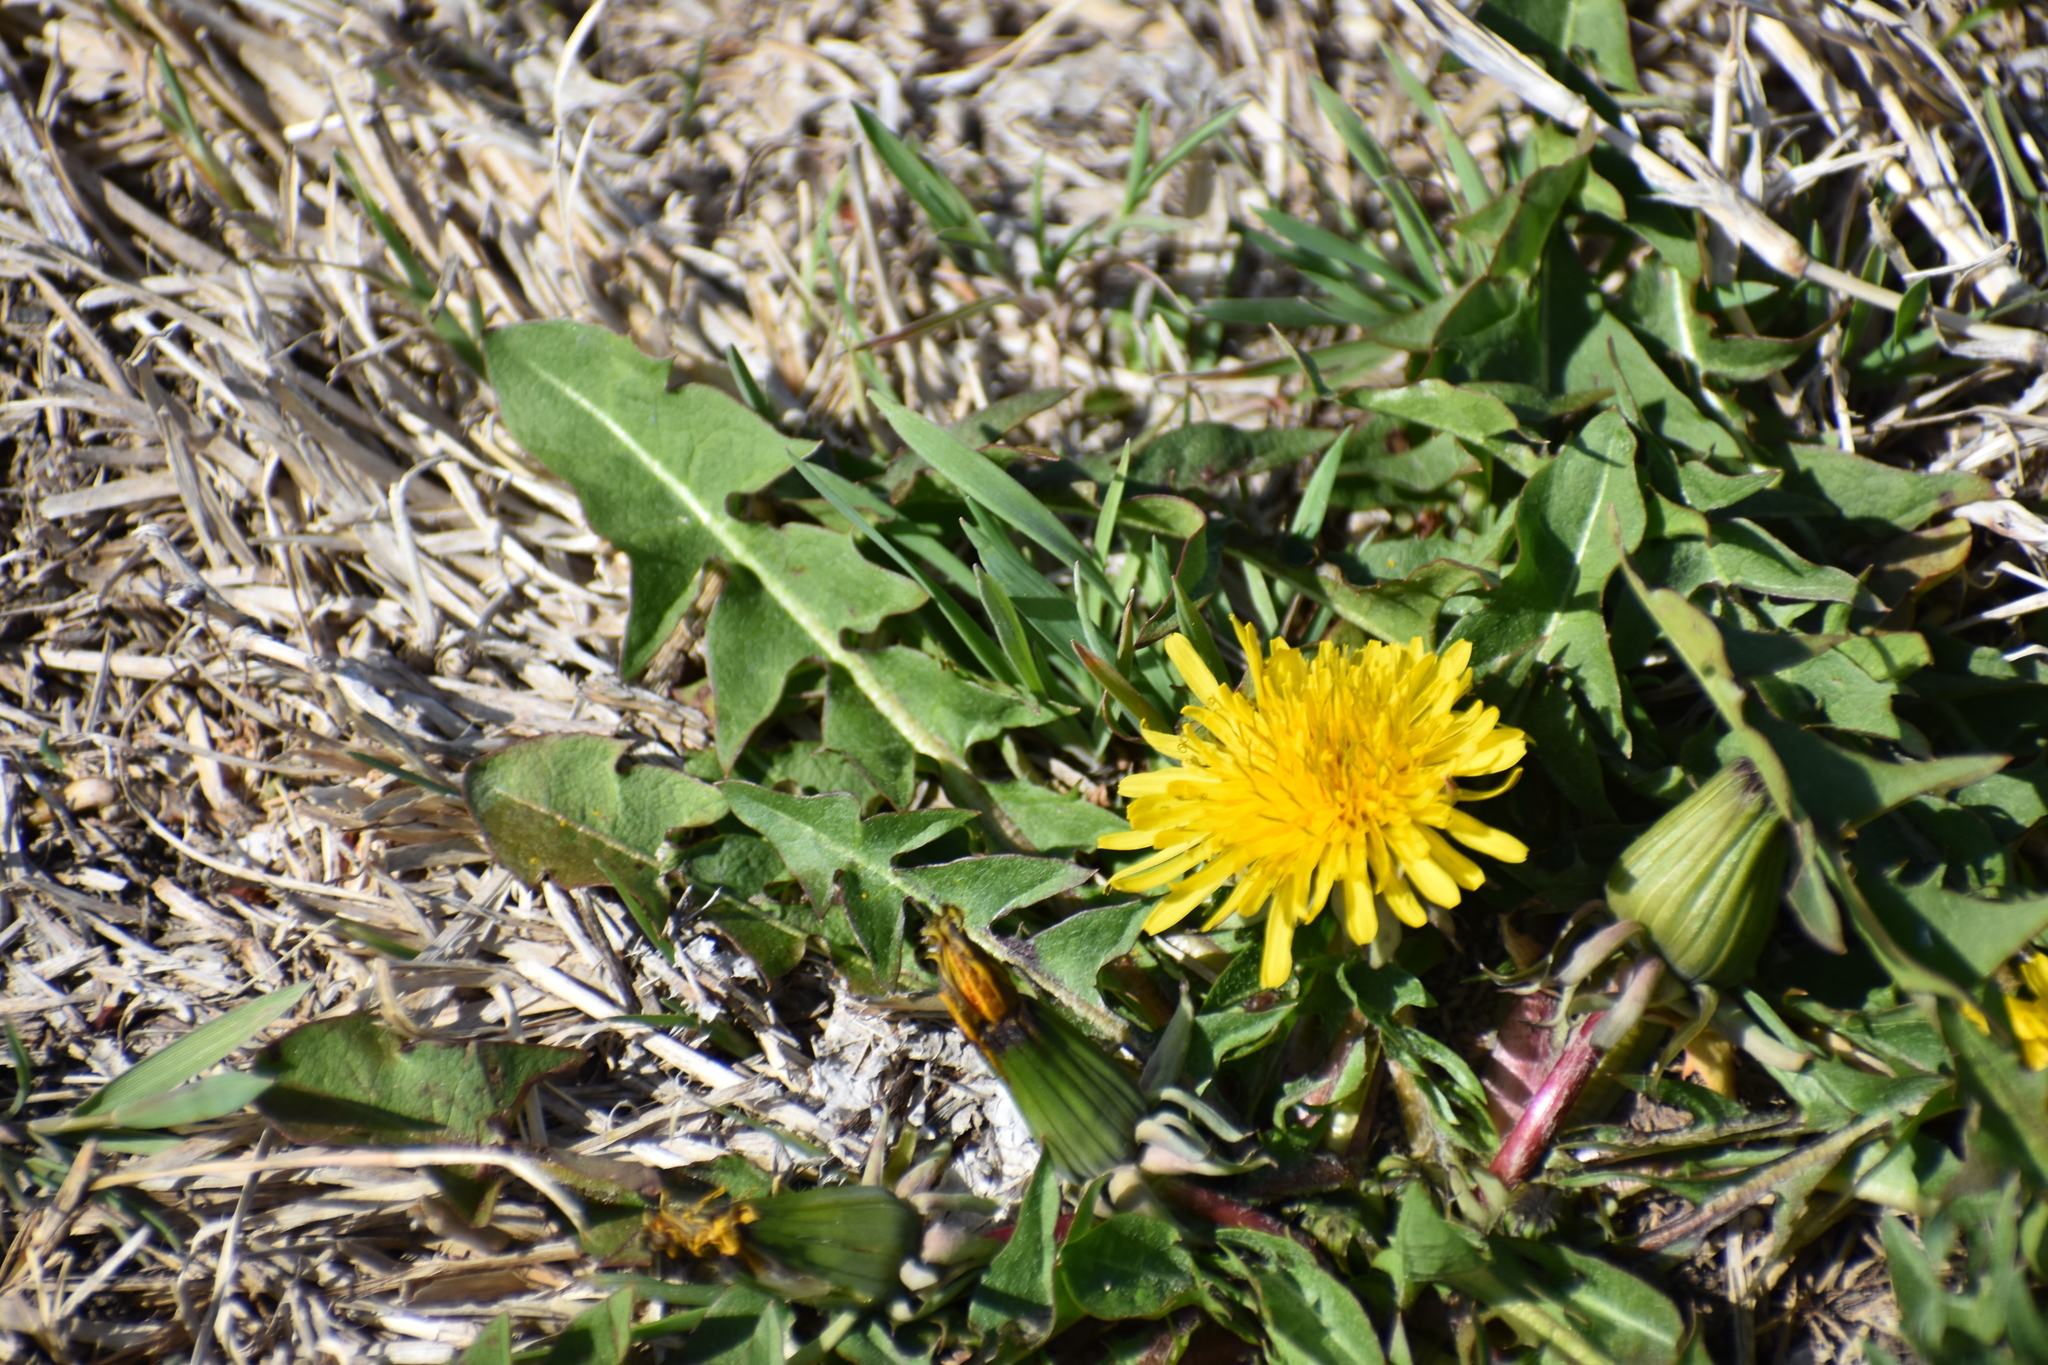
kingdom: Plantae
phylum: Tracheophyta
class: Magnoliopsida
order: Asterales
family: Asteraceae
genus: Taraxacum
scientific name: Taraxacum
